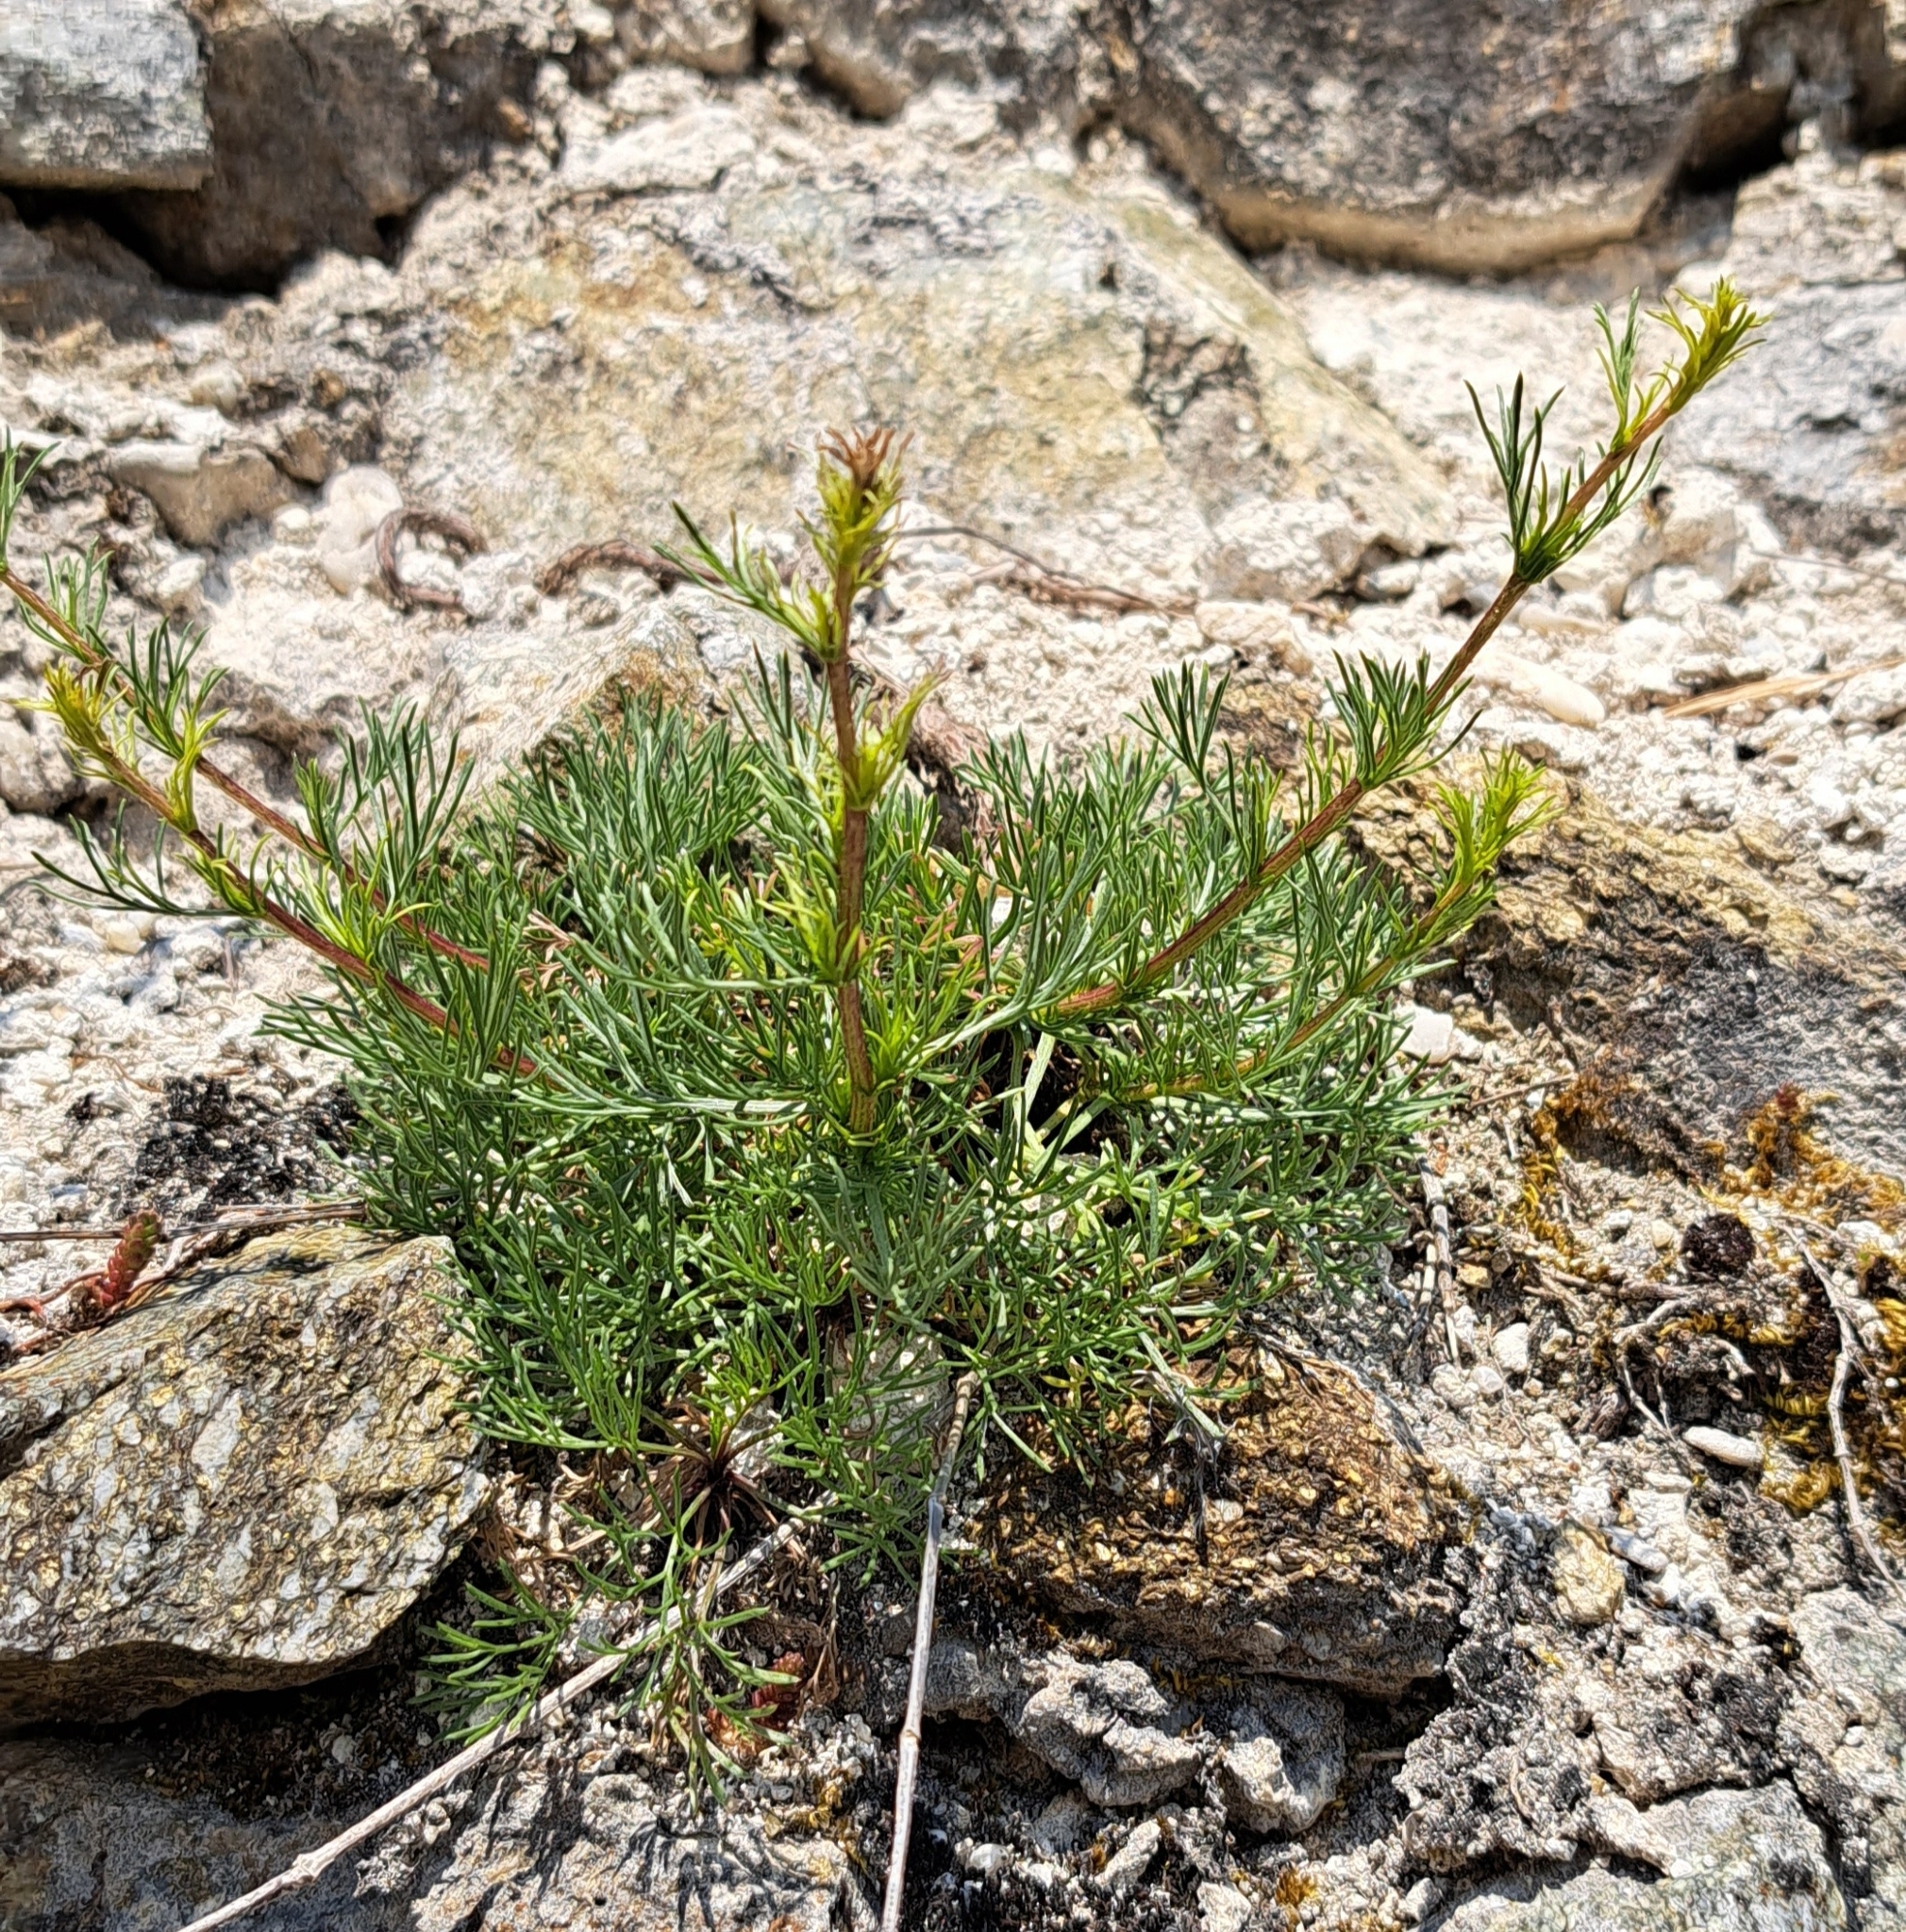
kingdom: Plantae
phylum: Tracheophyta
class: Magnoliopsida
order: Asterales
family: Asteraceae
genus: Jacobaea
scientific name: Jacobaea erucifolia
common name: Hoary ragwort
